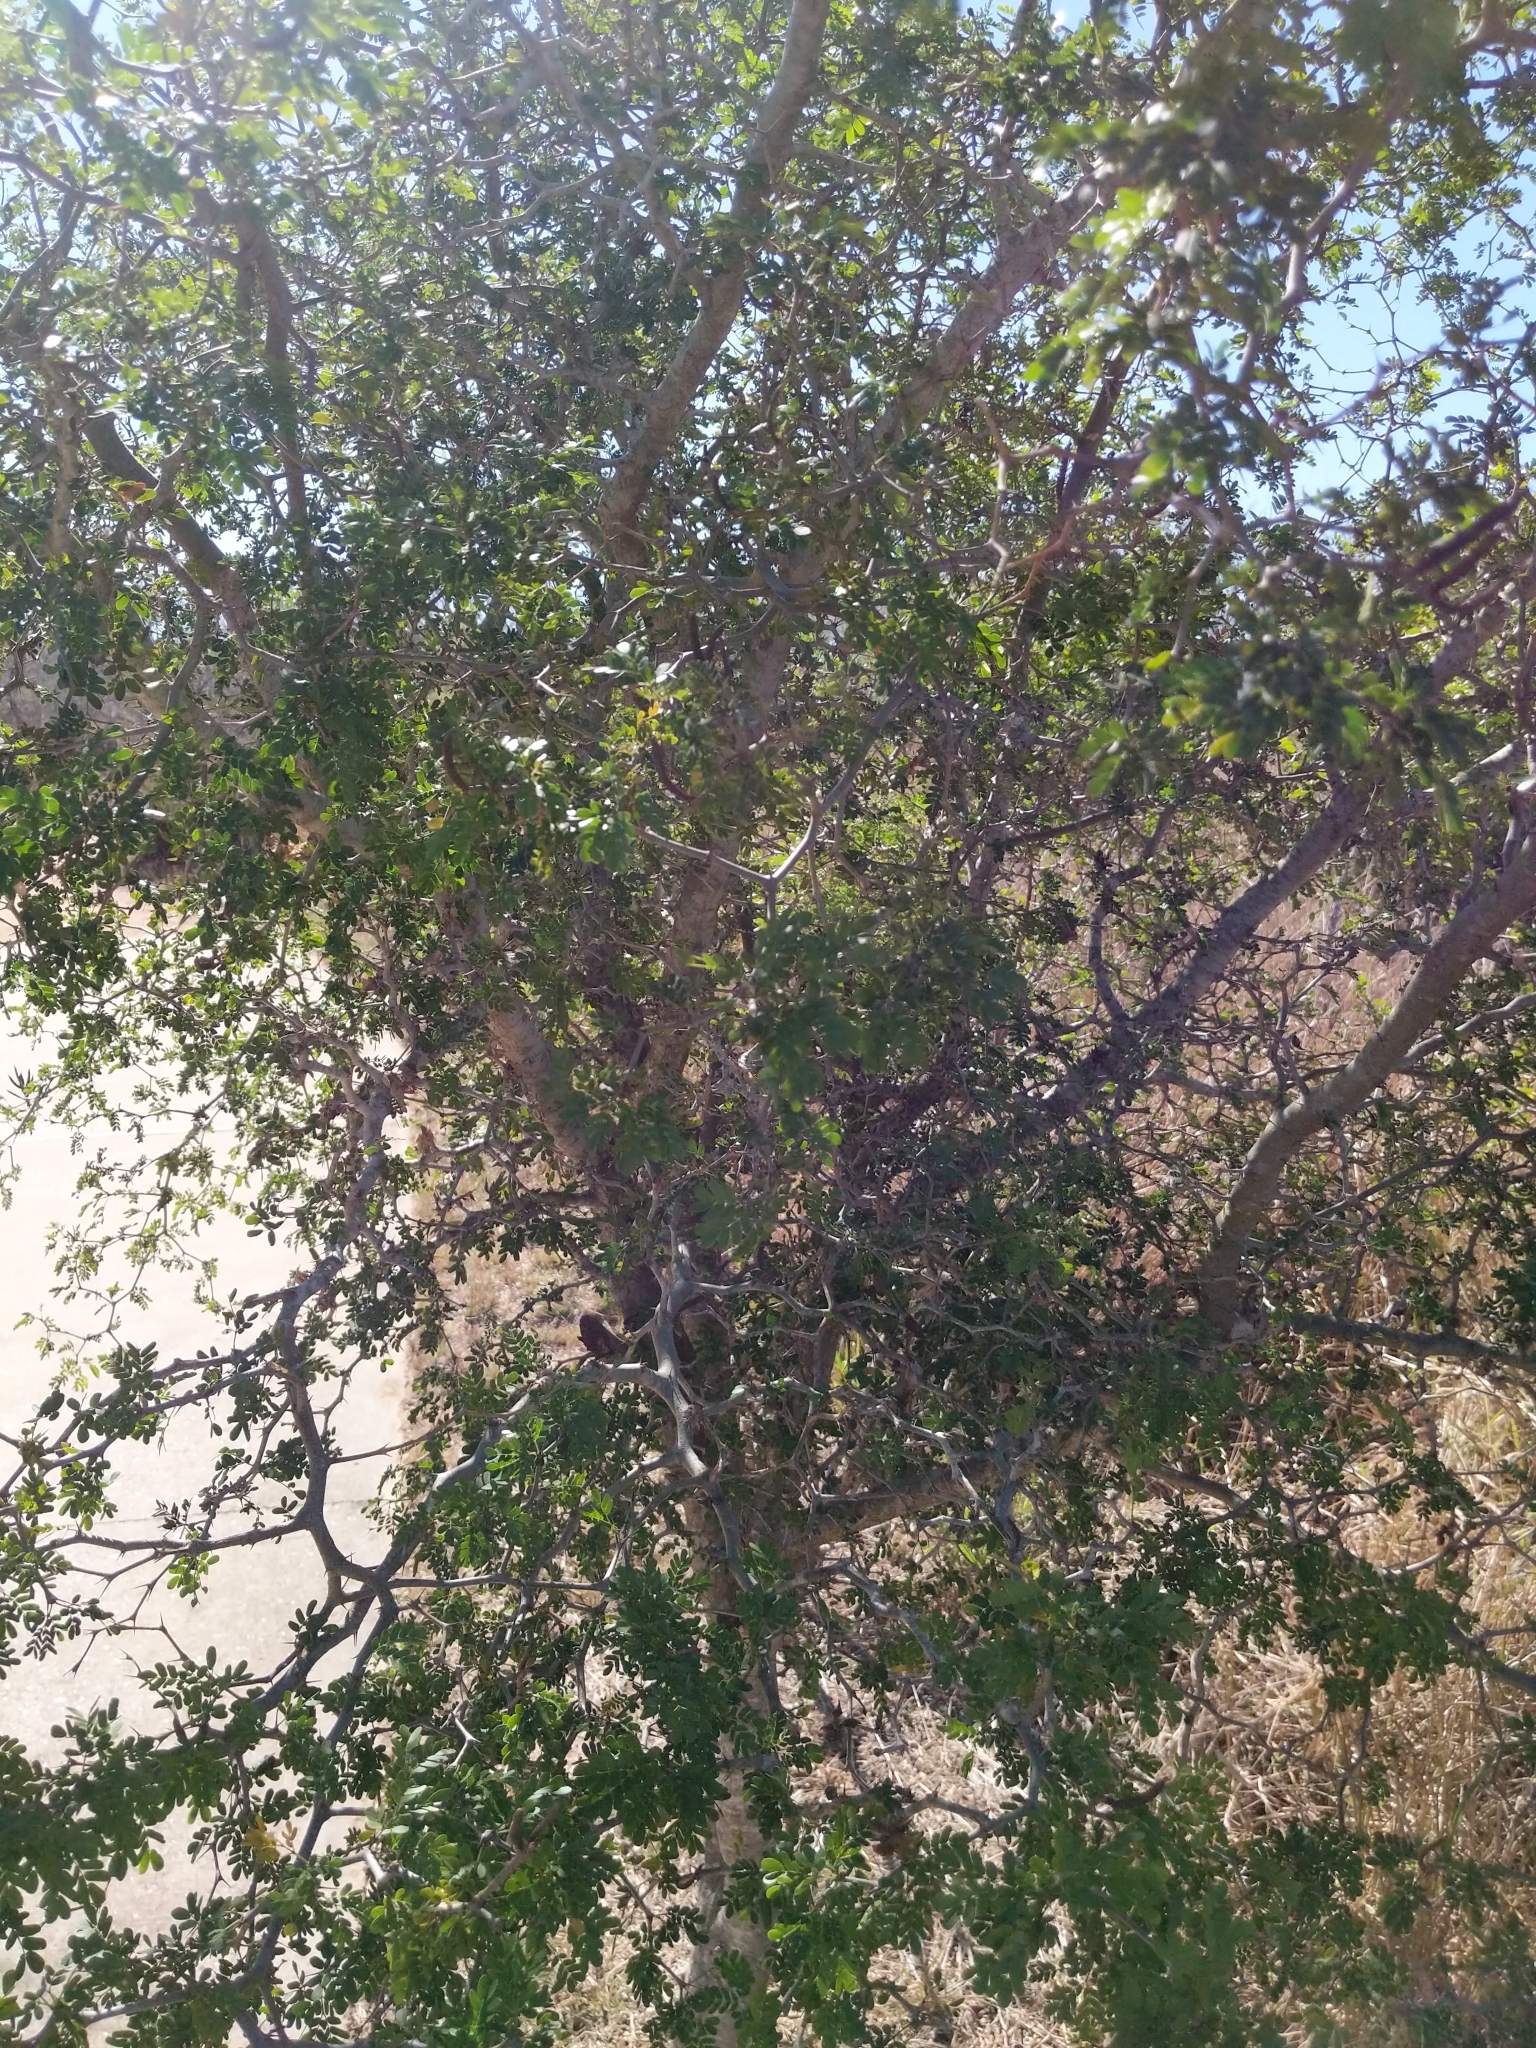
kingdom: Plantae
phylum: Tracheophyta
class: Magnoliopsida
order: Fabales
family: Fabaceae
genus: Ebenopsis
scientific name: Ebenopsis ebano
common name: Ebony blackbead
